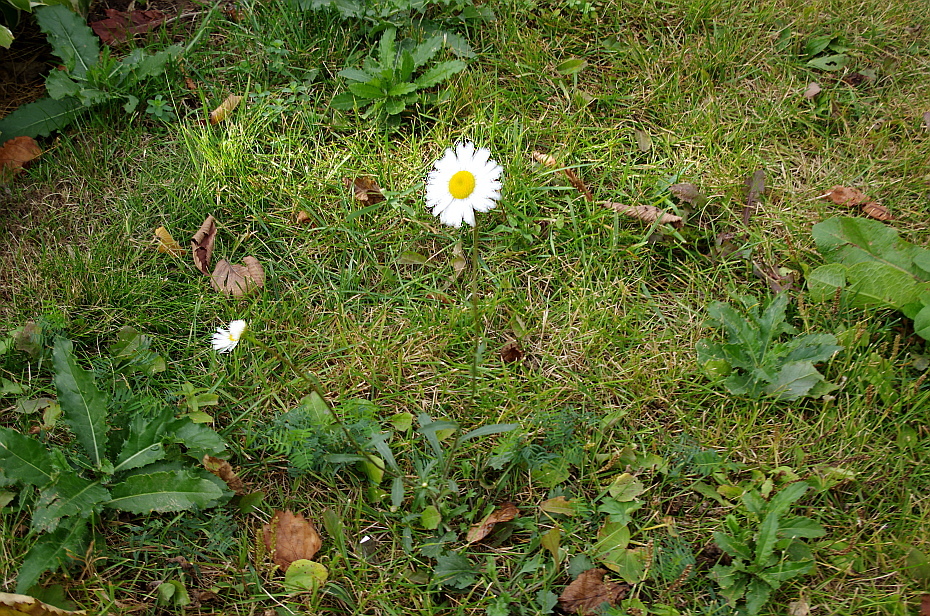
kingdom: Plantae
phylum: Tracheophyta
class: Magnoliopsida
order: Asterales
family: Asteraceae
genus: Leucanthemum
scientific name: Leucanthemum vulgare
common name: Oxeye daisy
